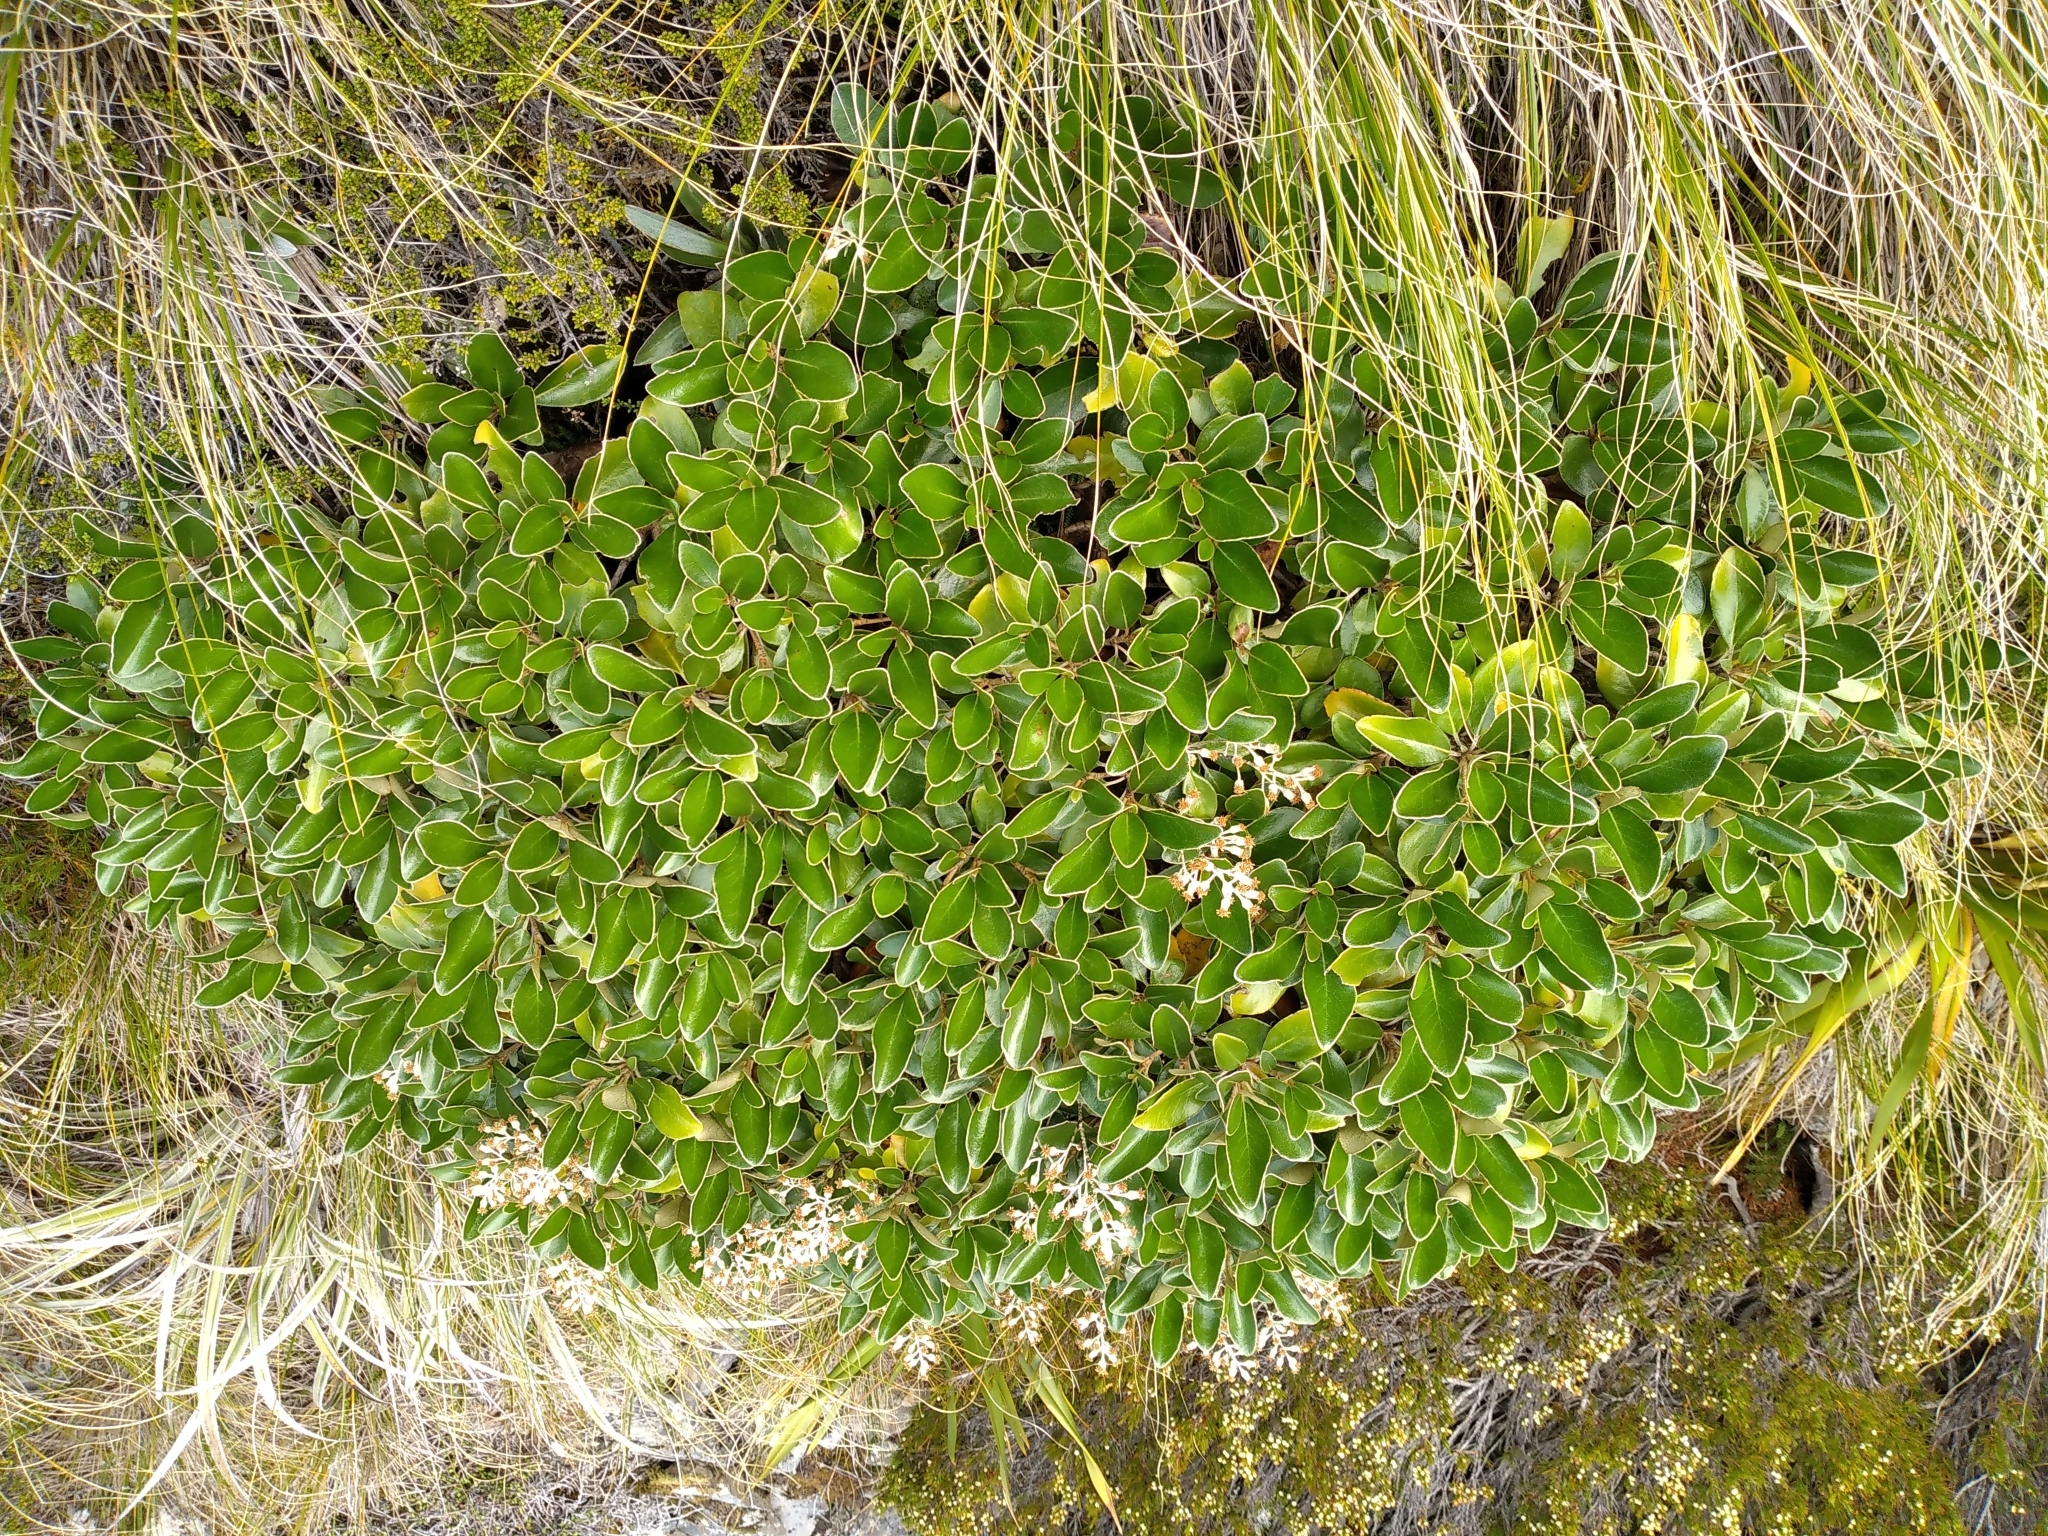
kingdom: Plantae
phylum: Tracheophyta
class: Magnoliopsida
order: Asterales
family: Asteraceae
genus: Brachyglottis
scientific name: Brachyglottis elaeagnifolia
